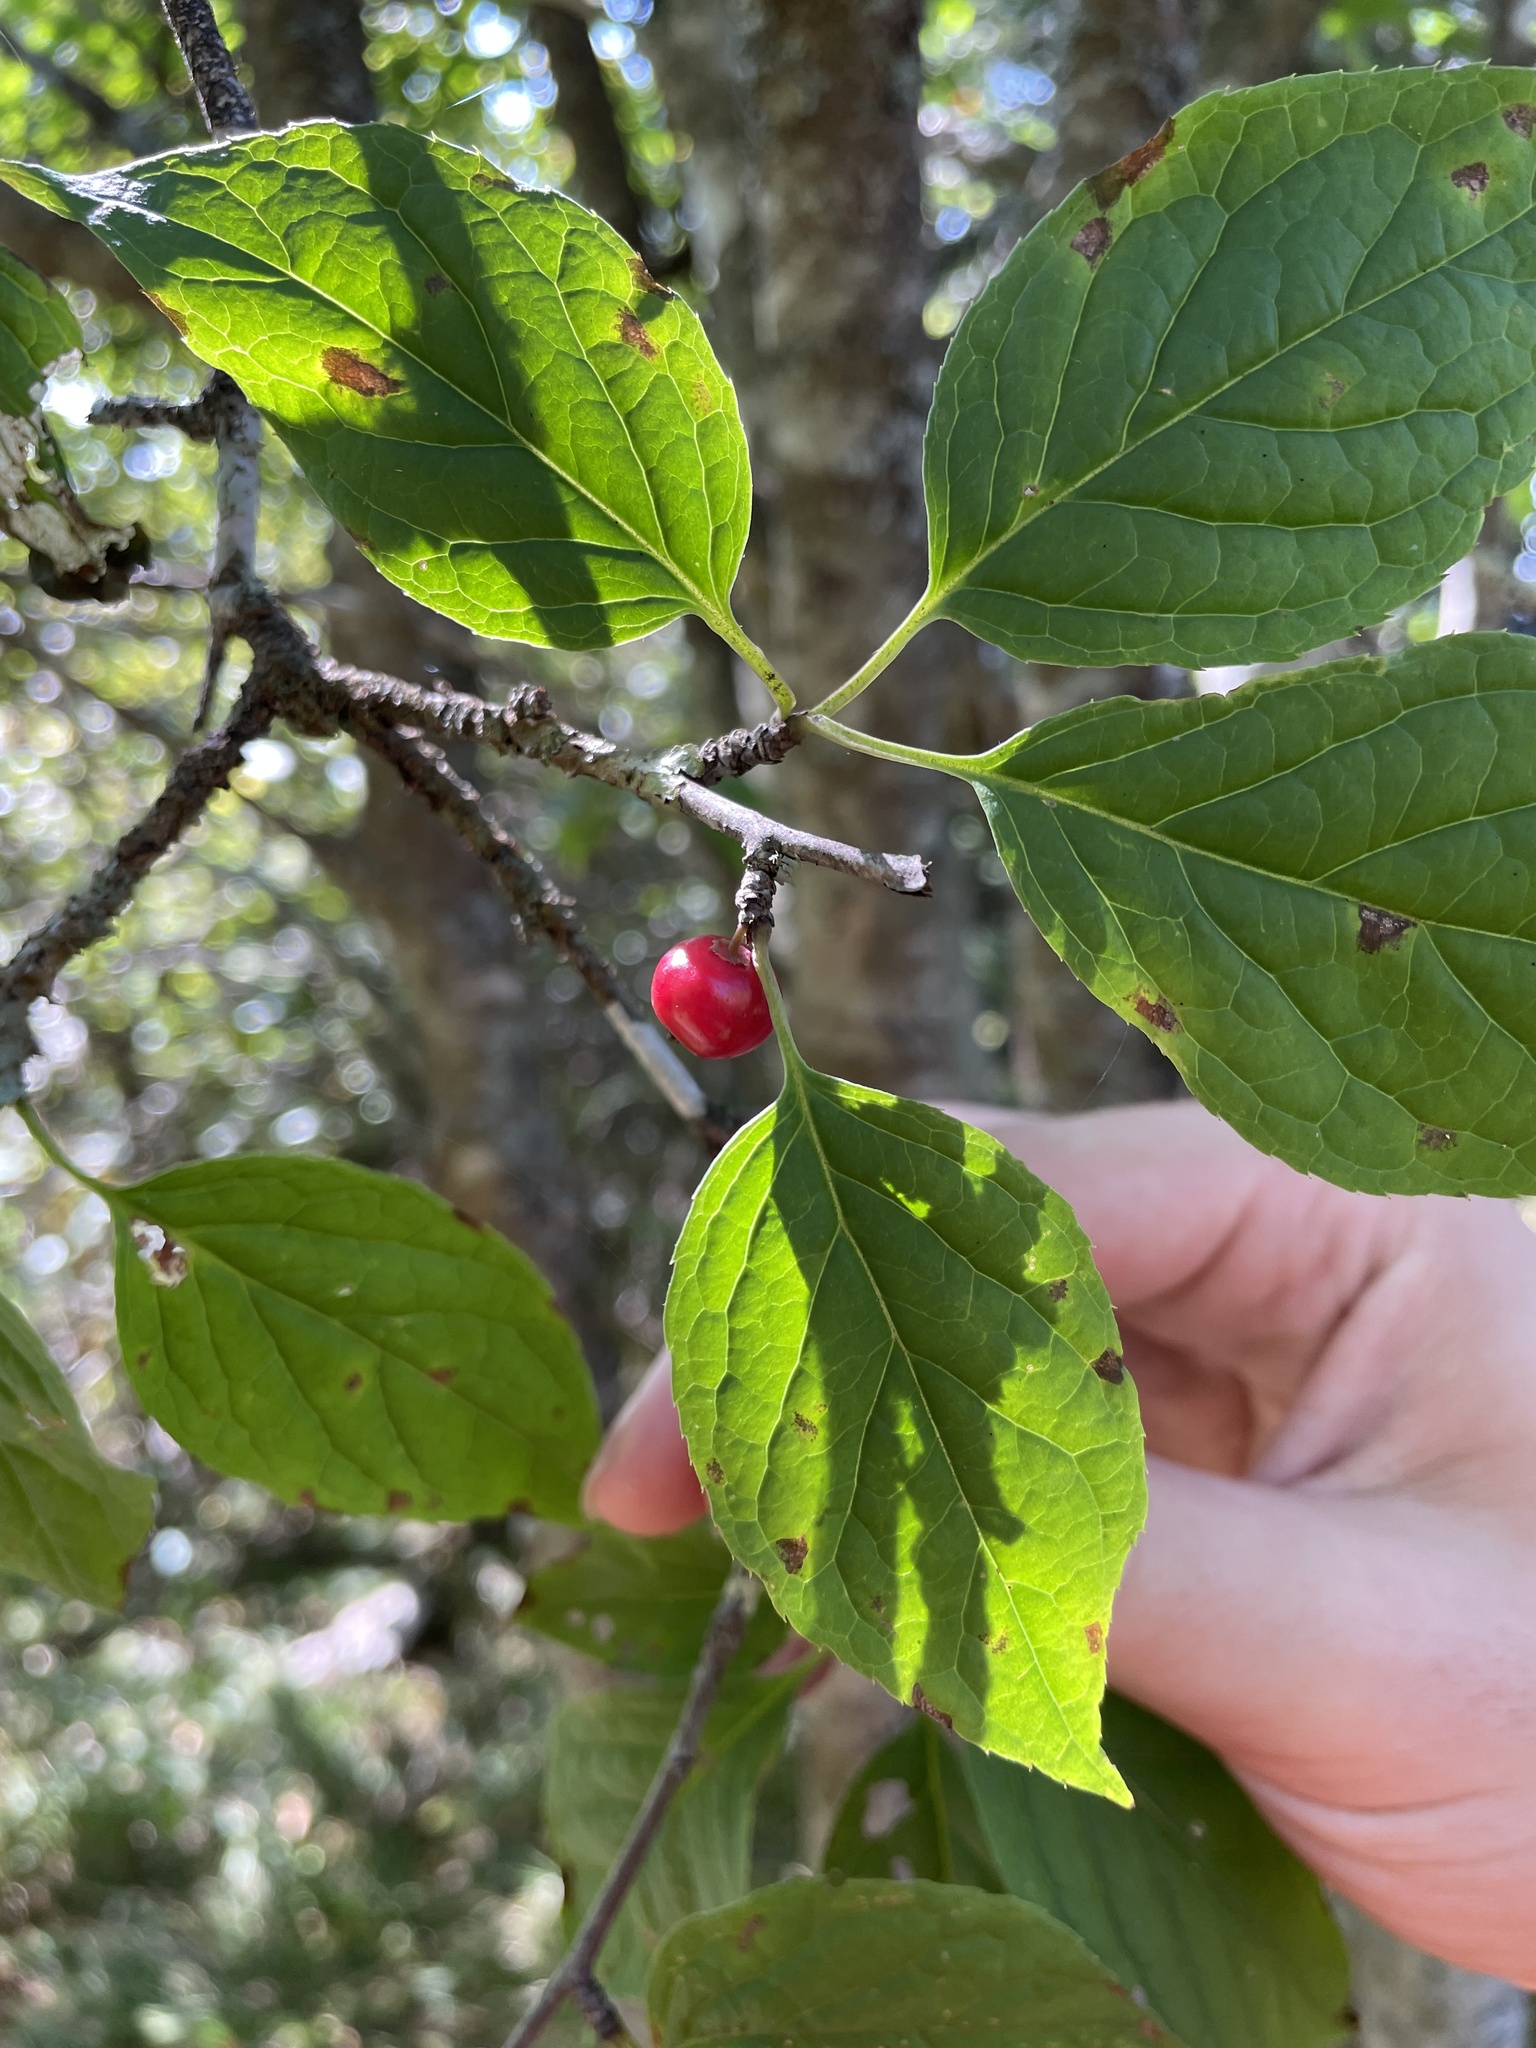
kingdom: Plantae
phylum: Tracheophyta
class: Magnoliopsida
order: Aquifoliales
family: Aquifoliaceae
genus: Ilex
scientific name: Ilex montana
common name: Mountain winterberry
